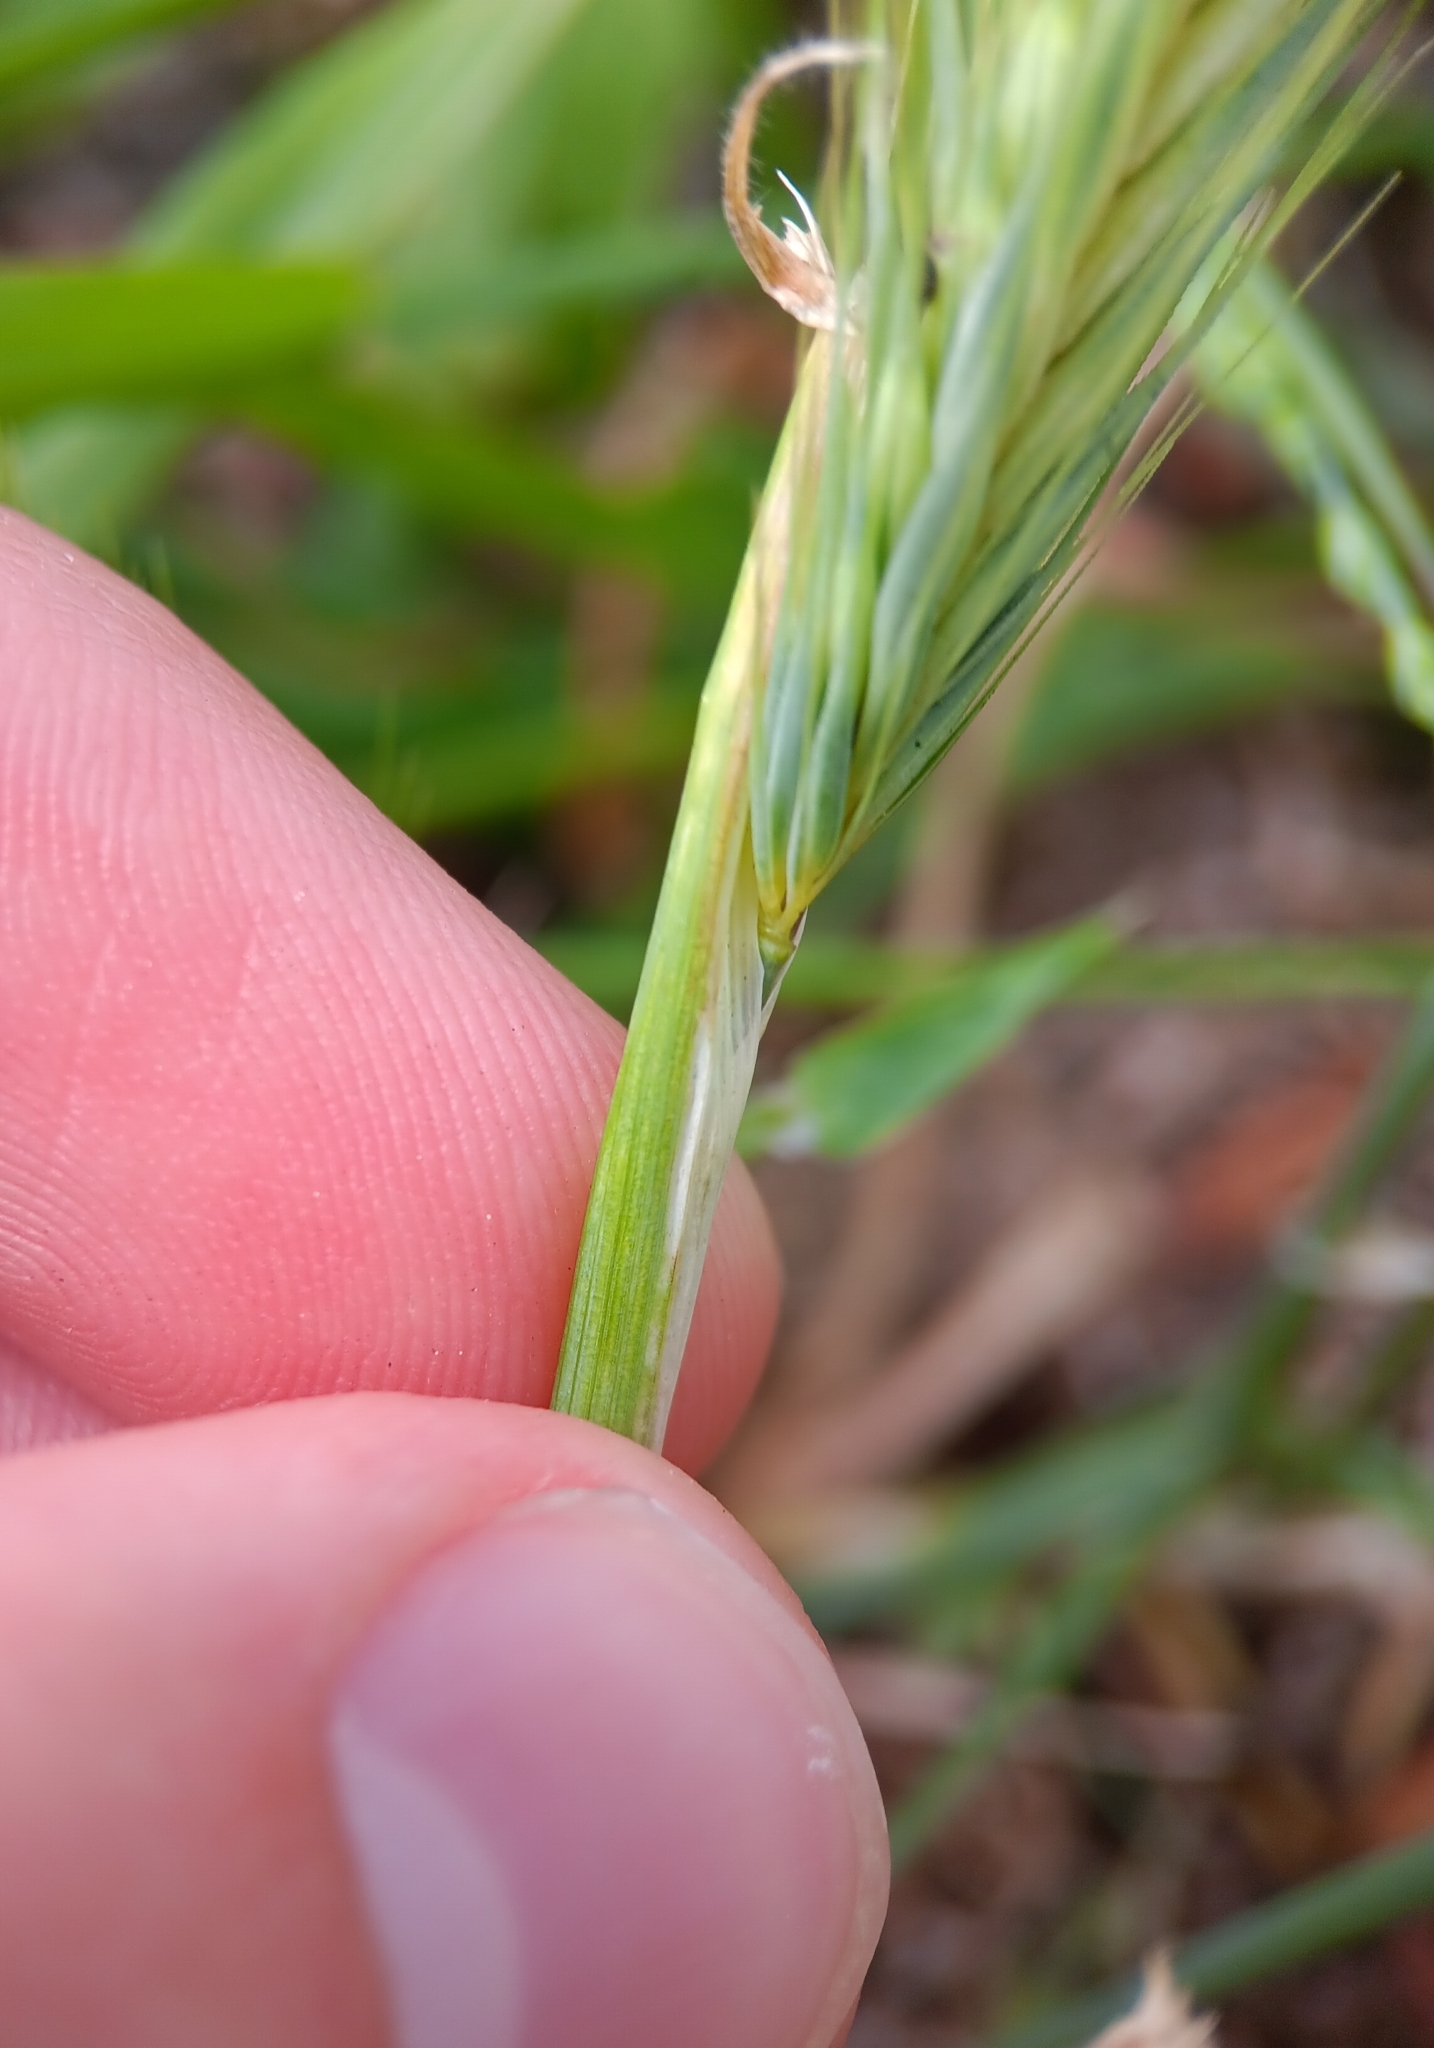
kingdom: Plantae
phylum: Tracheophyta
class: Liliopsida
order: Poales
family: Poaceae
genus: Hordeum
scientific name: Hordeum murinum
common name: Wall barley
